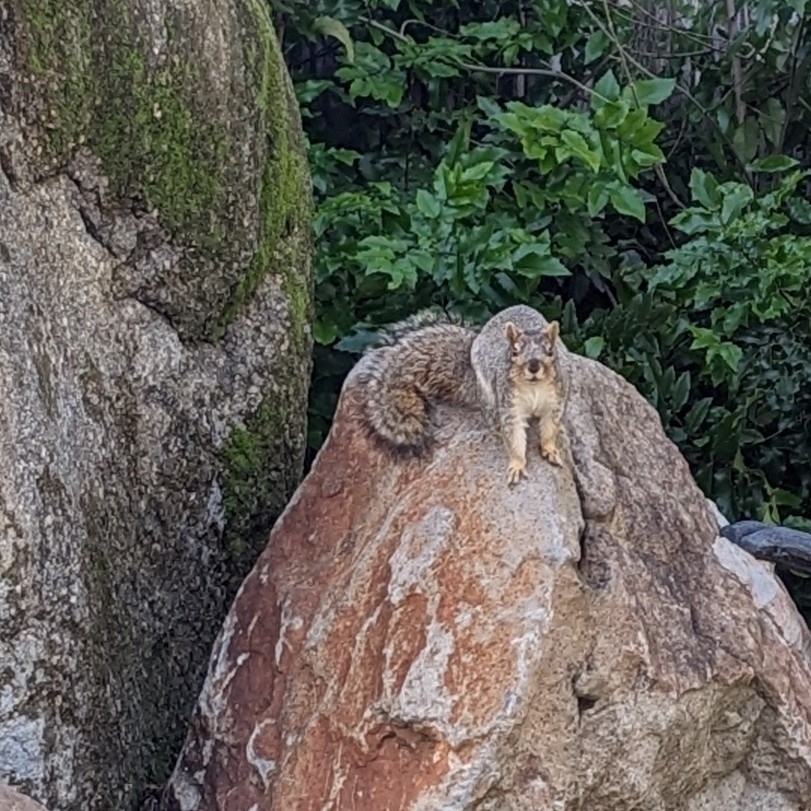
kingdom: Animalia
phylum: Chordata
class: Mammalia
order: Rodentia
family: Sciuridae
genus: Sciurus
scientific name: Sciurus niger
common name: Fox squirrel
